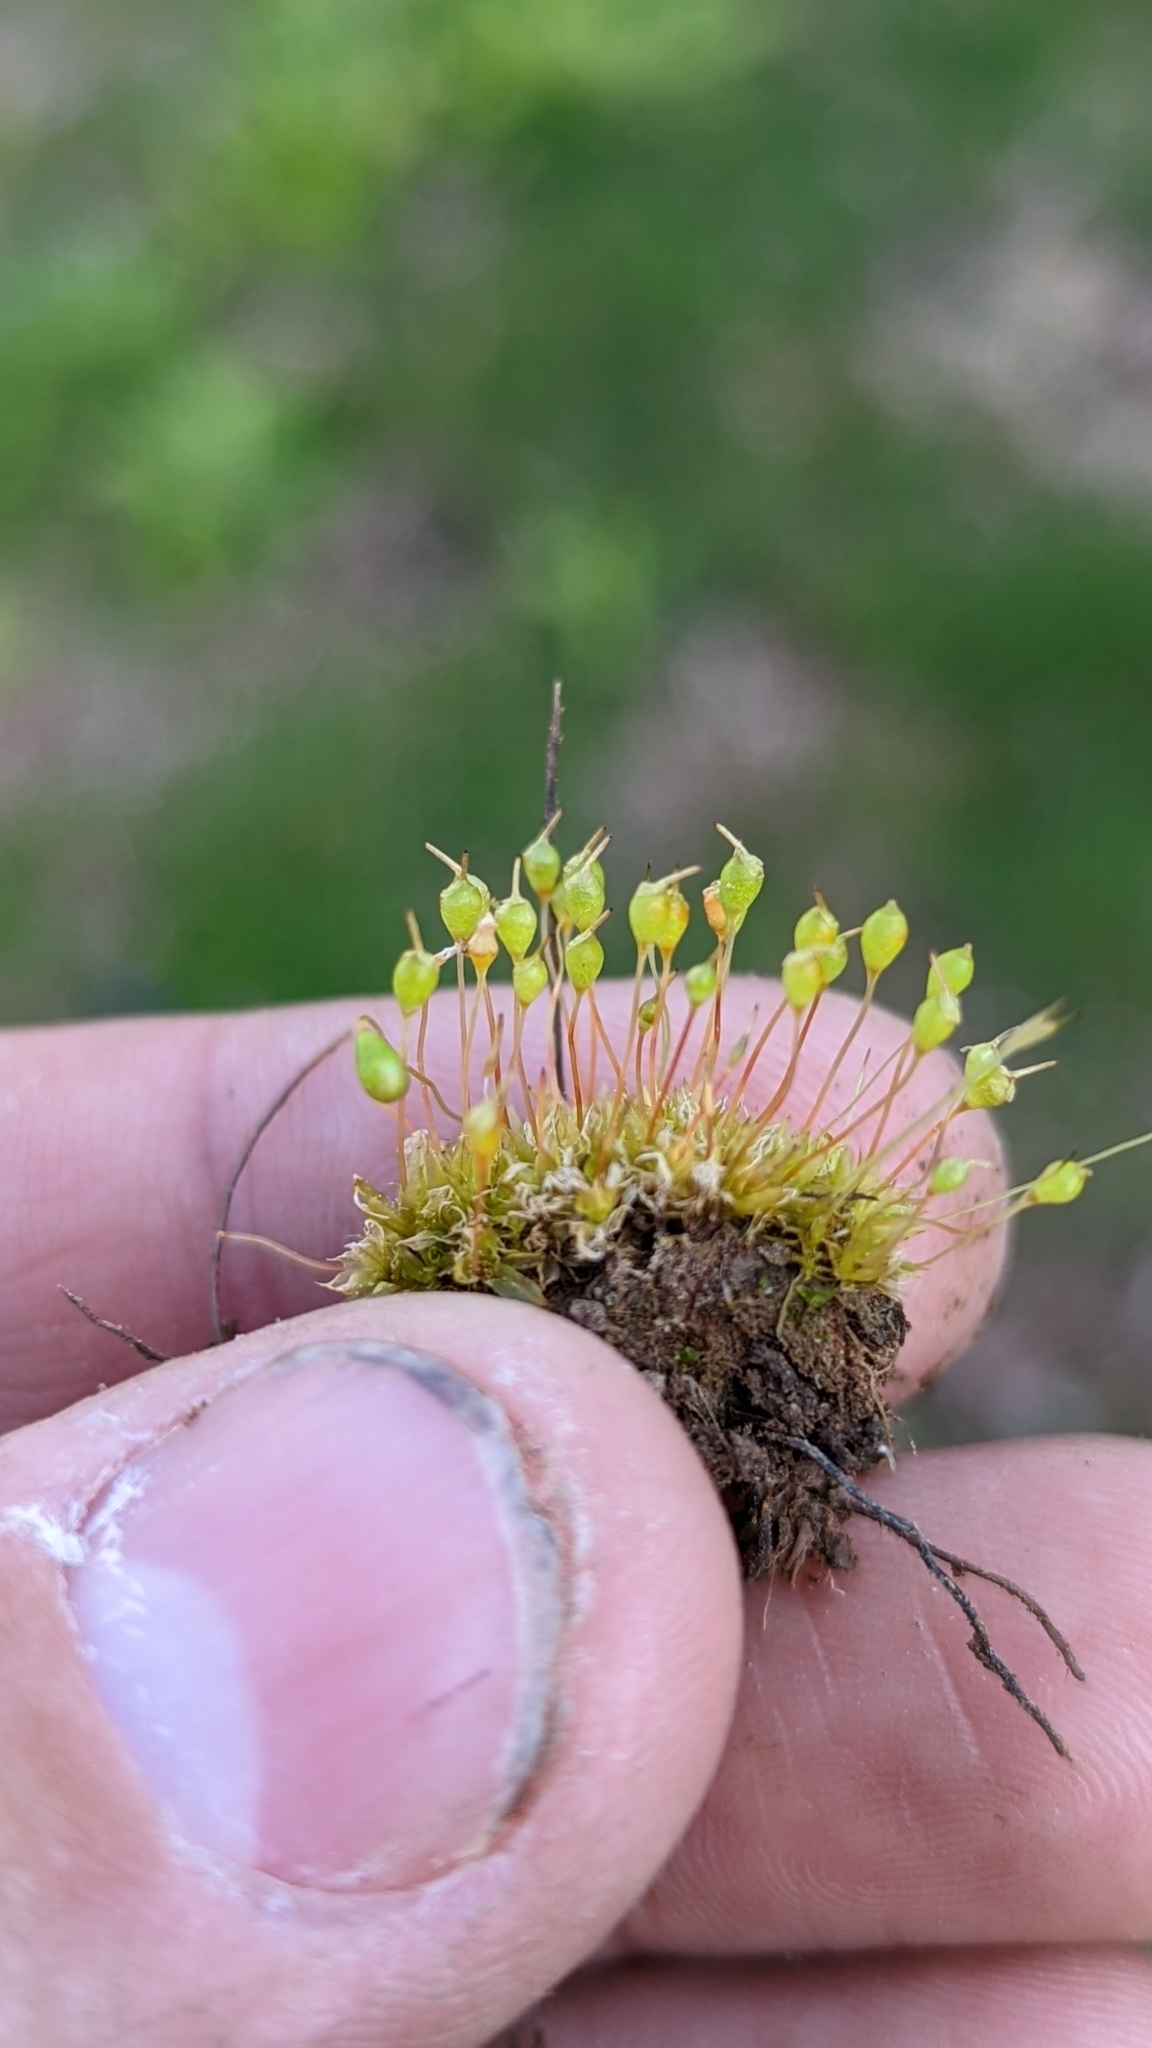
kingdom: Plantae
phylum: Bryophyta
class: Bryopsida
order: Funariales
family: Funariaceae
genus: Physcomitrium
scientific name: Physcomitrium pyriforme
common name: Common bladder-moss
